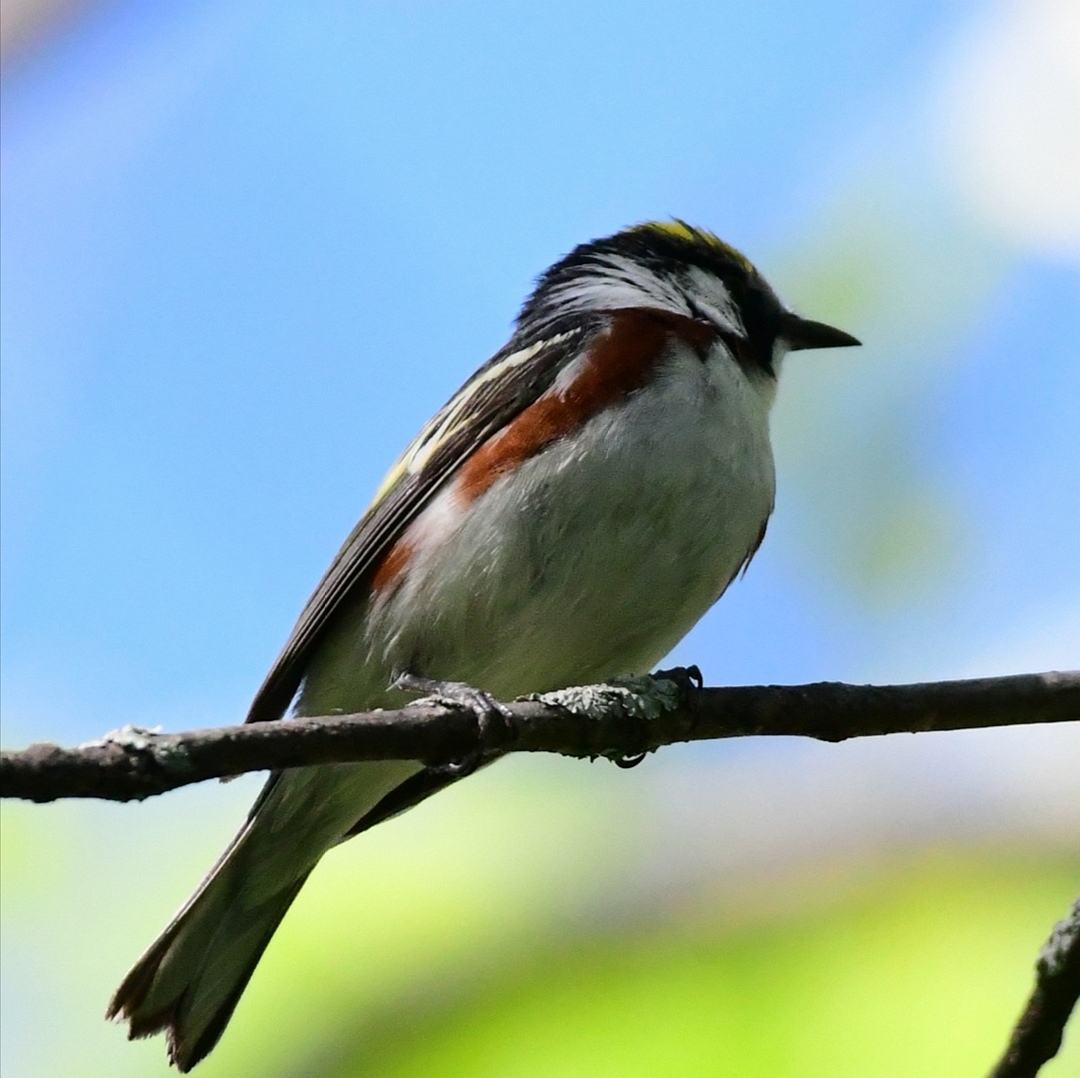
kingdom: Animalia
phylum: Chordata
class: Aves
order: Passeriformes
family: Parulidae
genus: Setophaga
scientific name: Setophaga pensylvanica
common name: Chestnut-sided warbler
